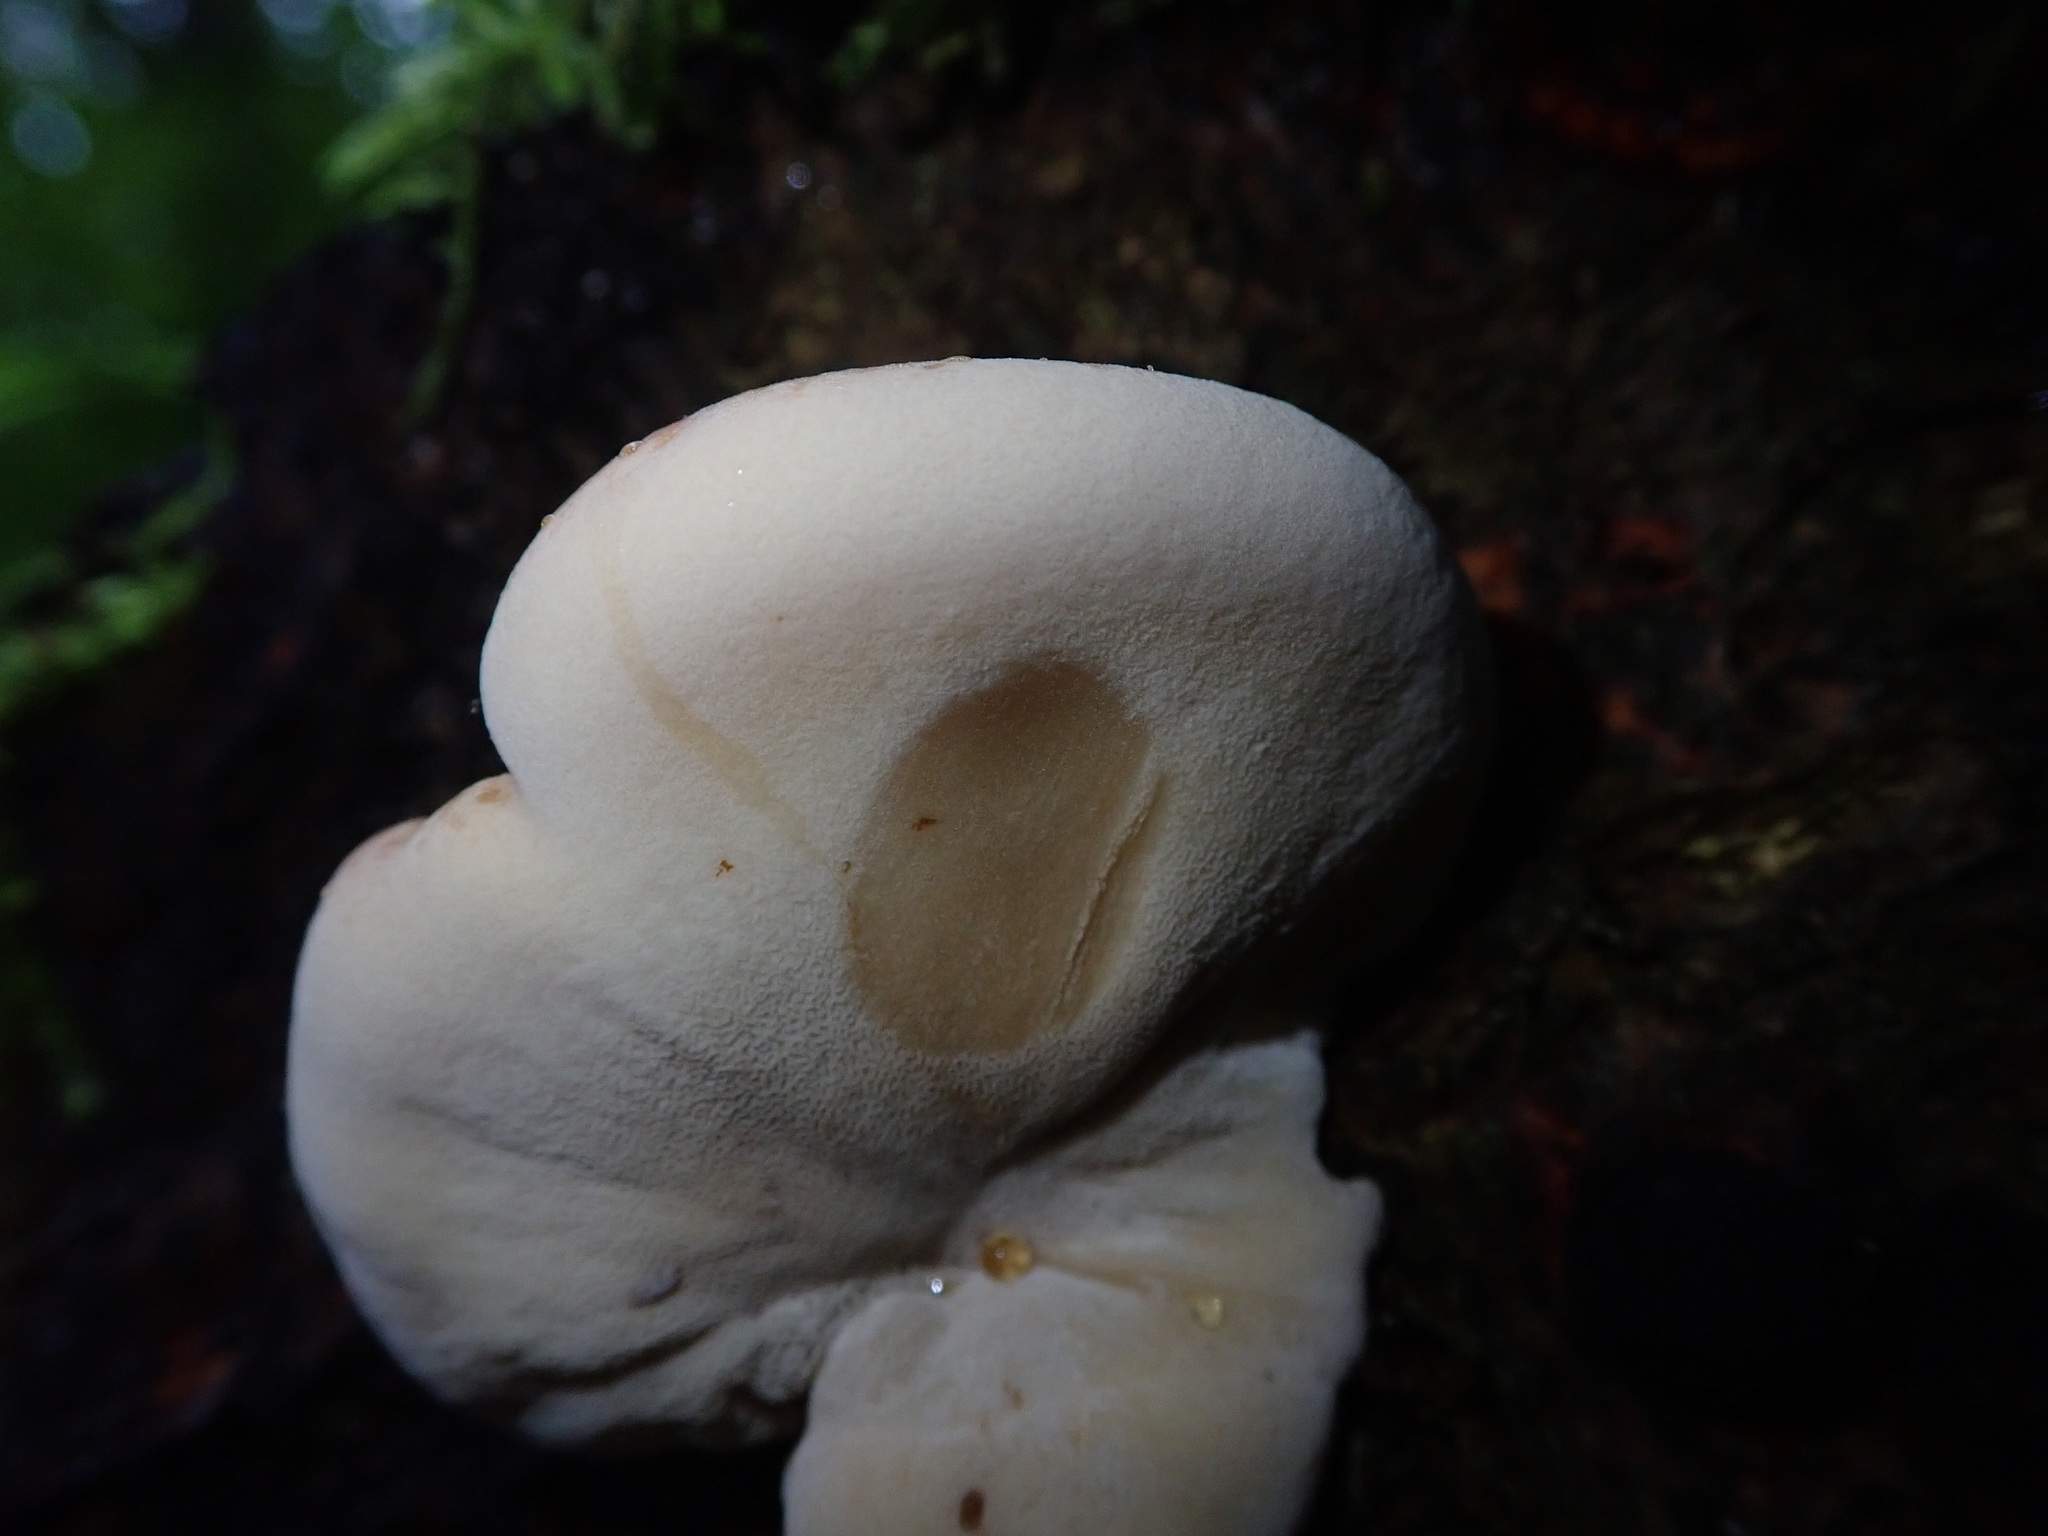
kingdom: Fungi
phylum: Basidiomycota
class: Agaricomycetes
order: Polyporales
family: Ischnodermataceae
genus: Ischnoderma
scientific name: Ischnoderma resinosum
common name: Resinous polypore
